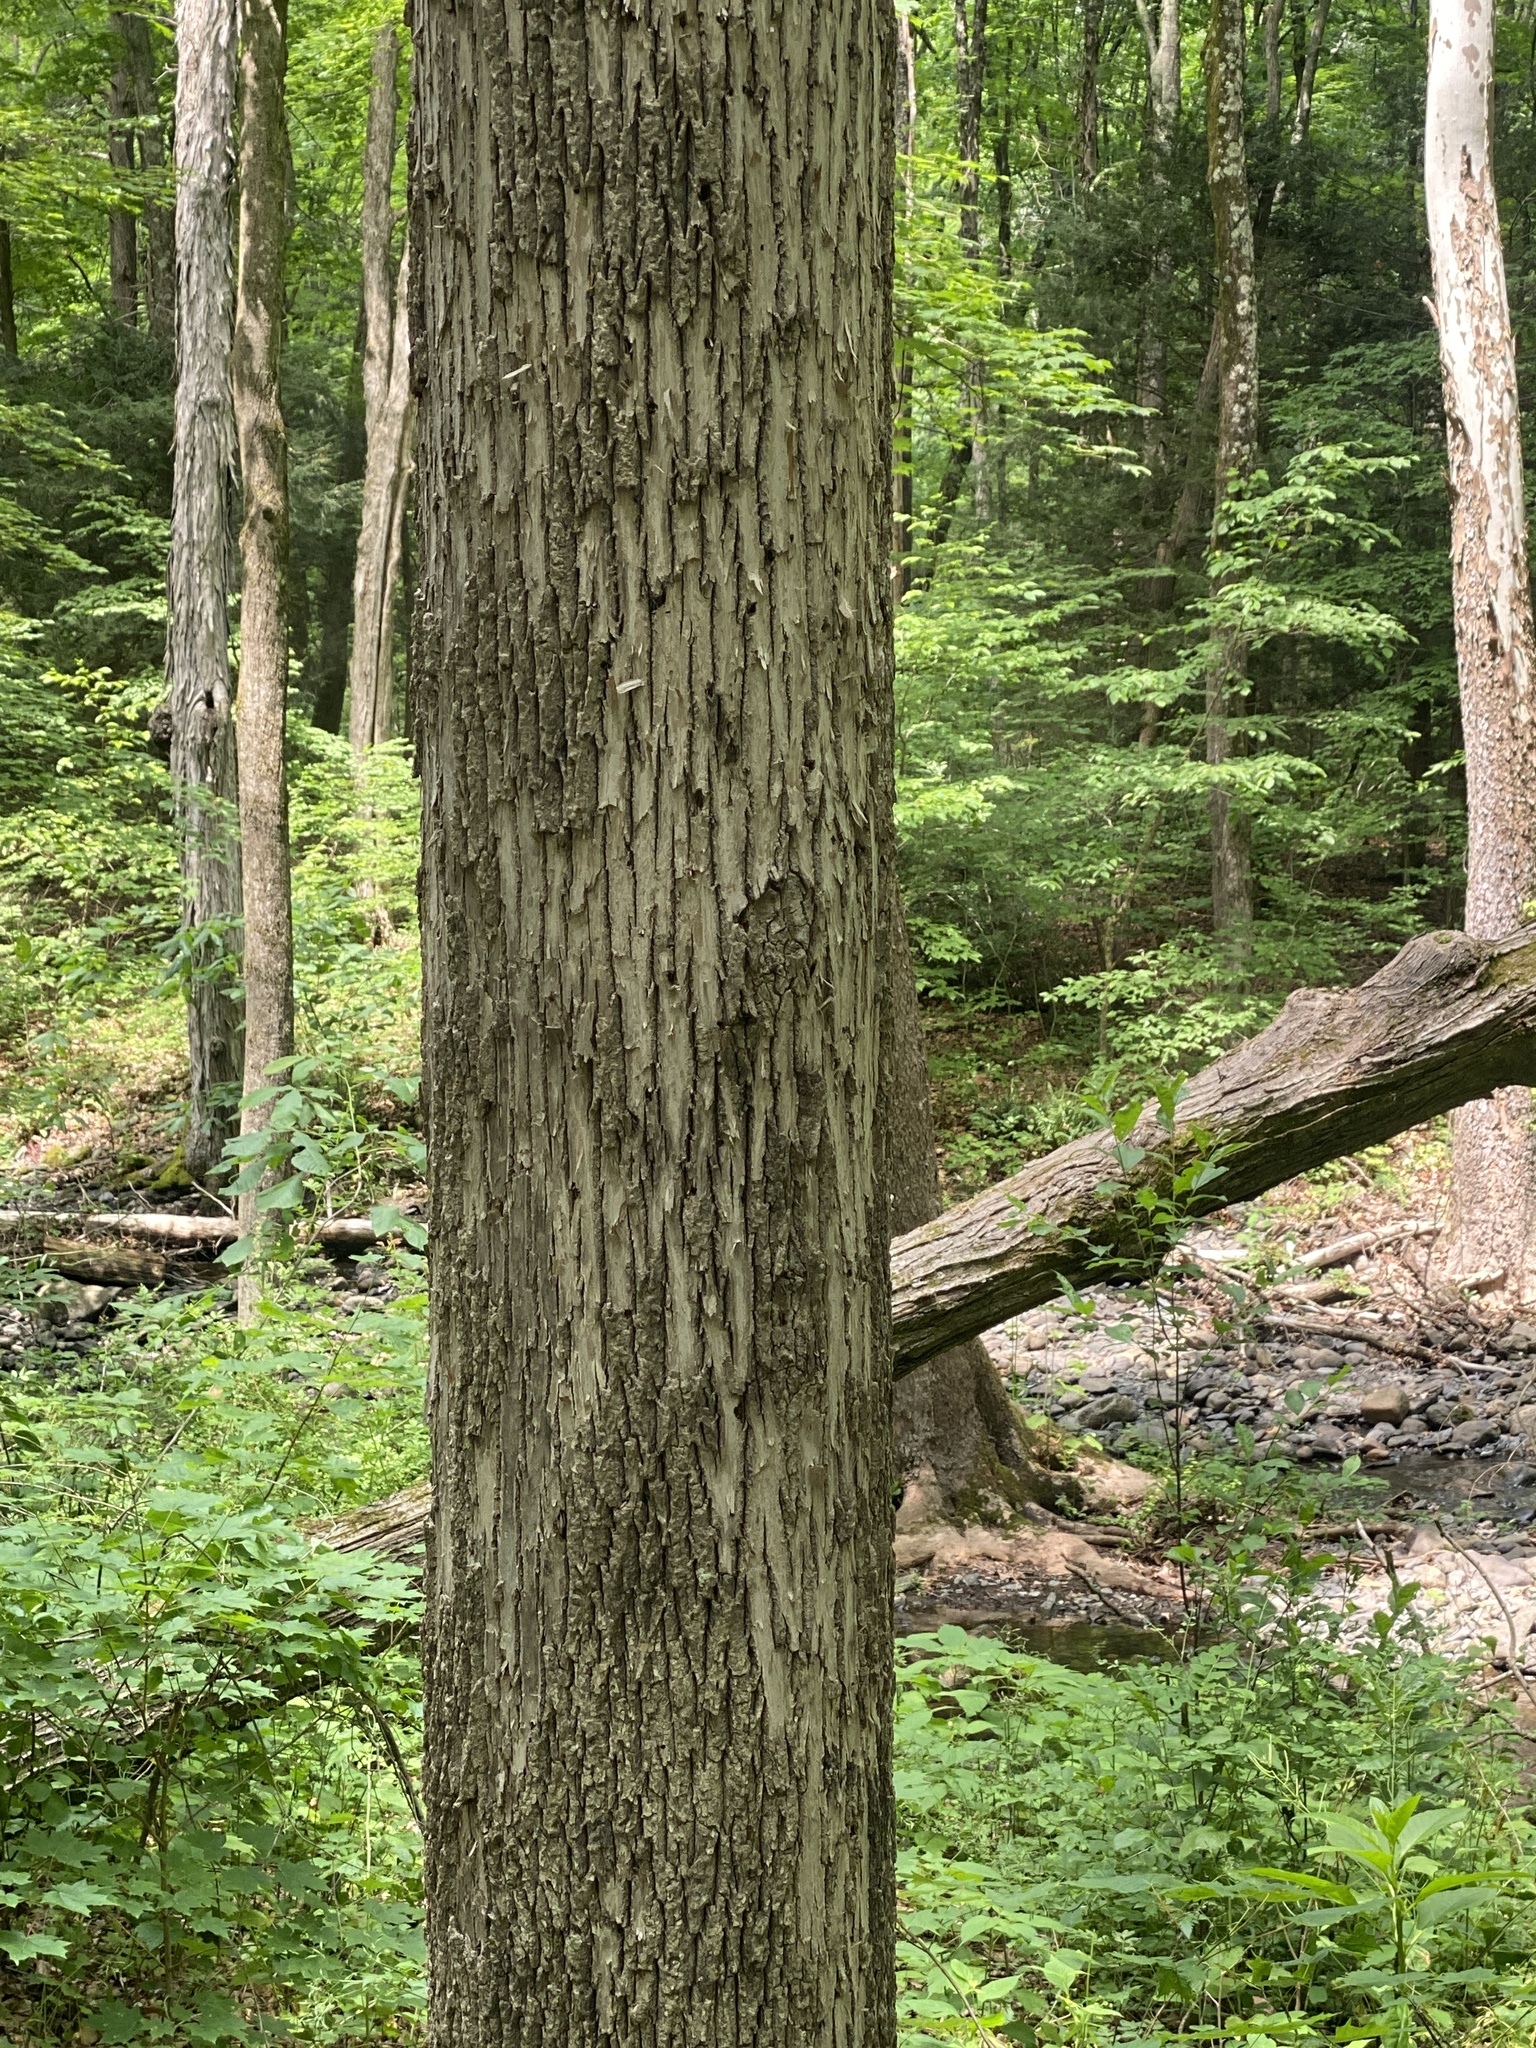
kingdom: Animalia
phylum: Arthropoda
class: Insecta
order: Coleoptera
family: Buprestidae
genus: Agrilus
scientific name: Agrilus planipennis
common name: Emerald ash borer
